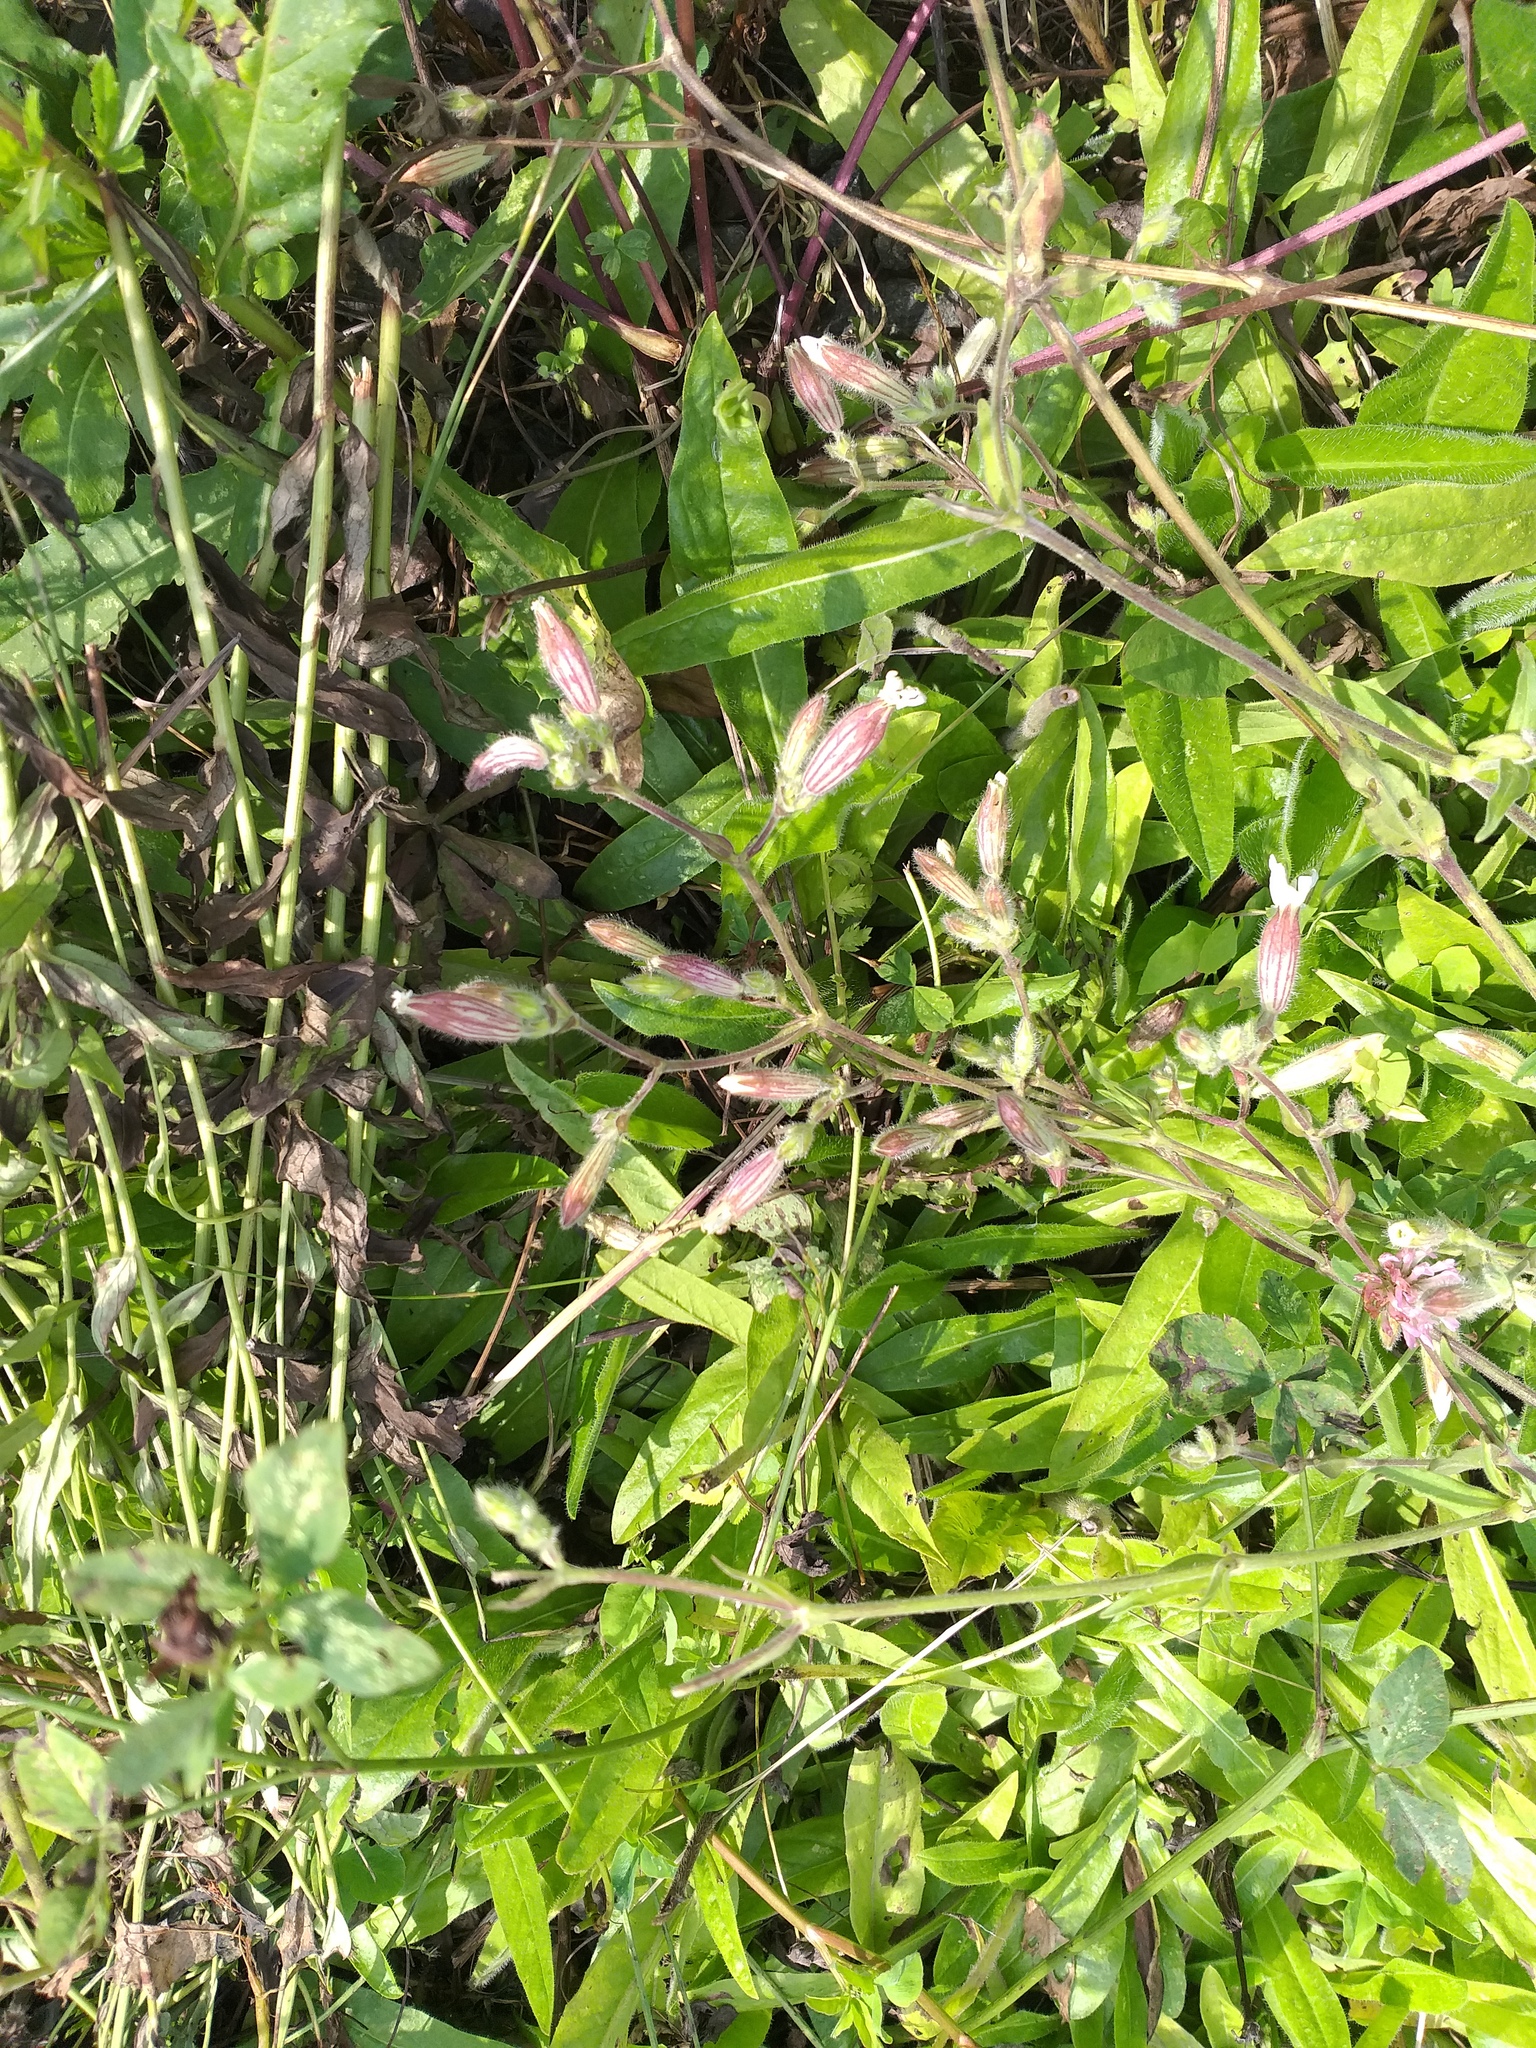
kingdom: Plantae
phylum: Tracheophyta
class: Magnoliopsida
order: Caryophyllales
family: Caryophyllaceae
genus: Silene
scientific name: Silene latifolia
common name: White campion
